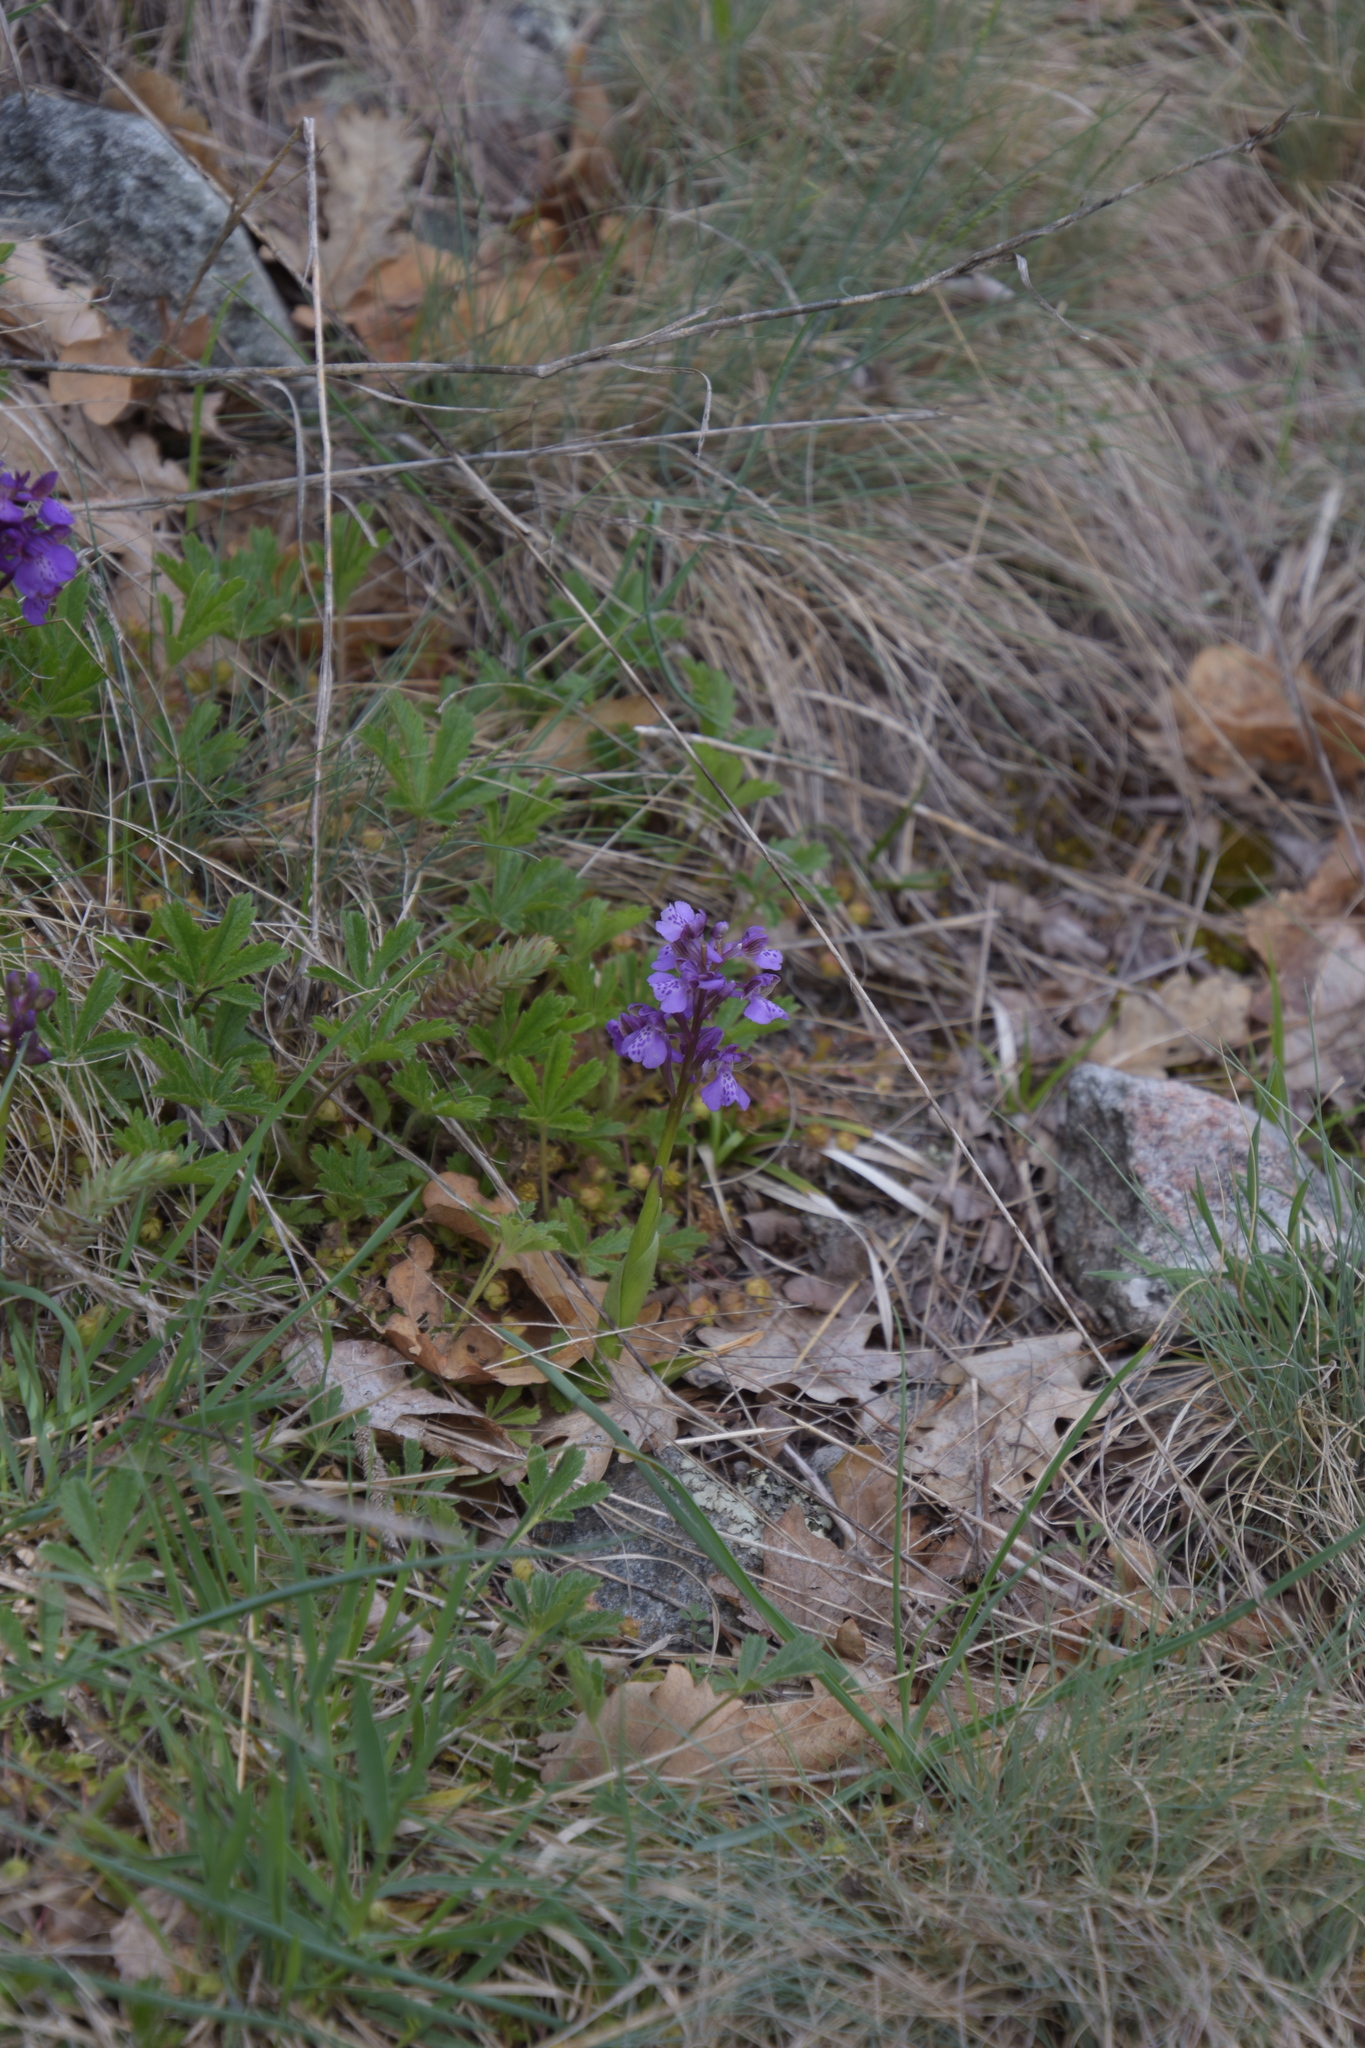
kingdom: Plantae
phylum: Tracheophyta
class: Liliopsida
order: Asparagales
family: Orchidaceae
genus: Anacamptis
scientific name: Anacamptis morio
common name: Green-winged orchid
